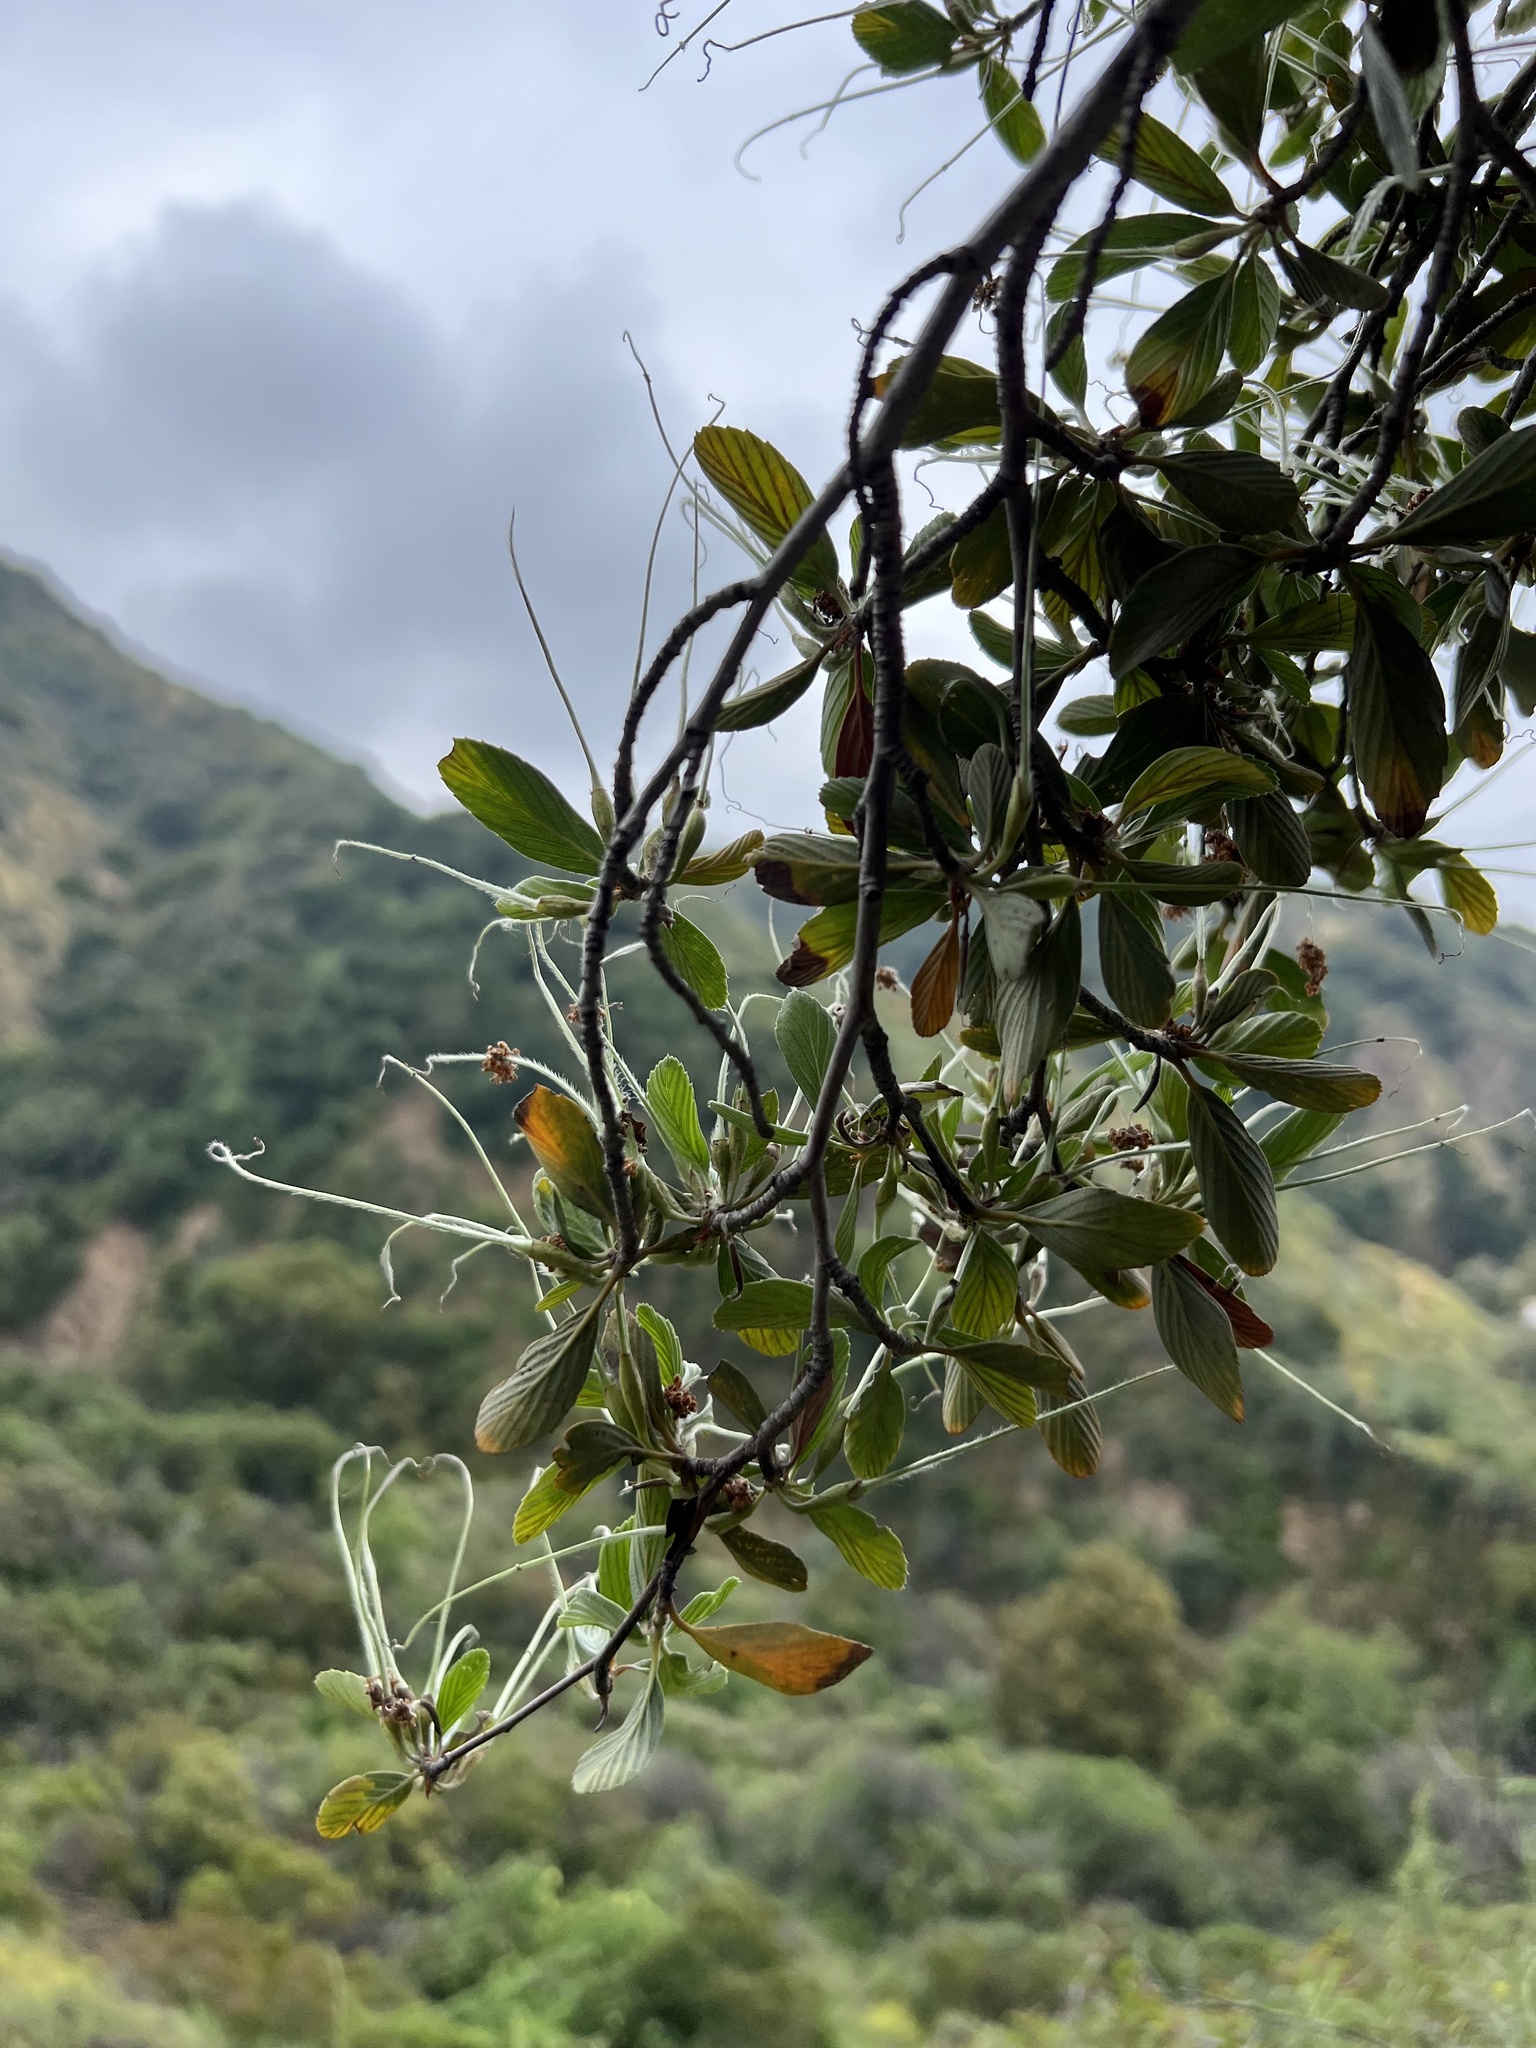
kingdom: Plantae
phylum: Tracheophyta
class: Magnoliopsida
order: Rosales
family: Rosaceae
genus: Cercocarpus
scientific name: Cercocarpus betuloides
